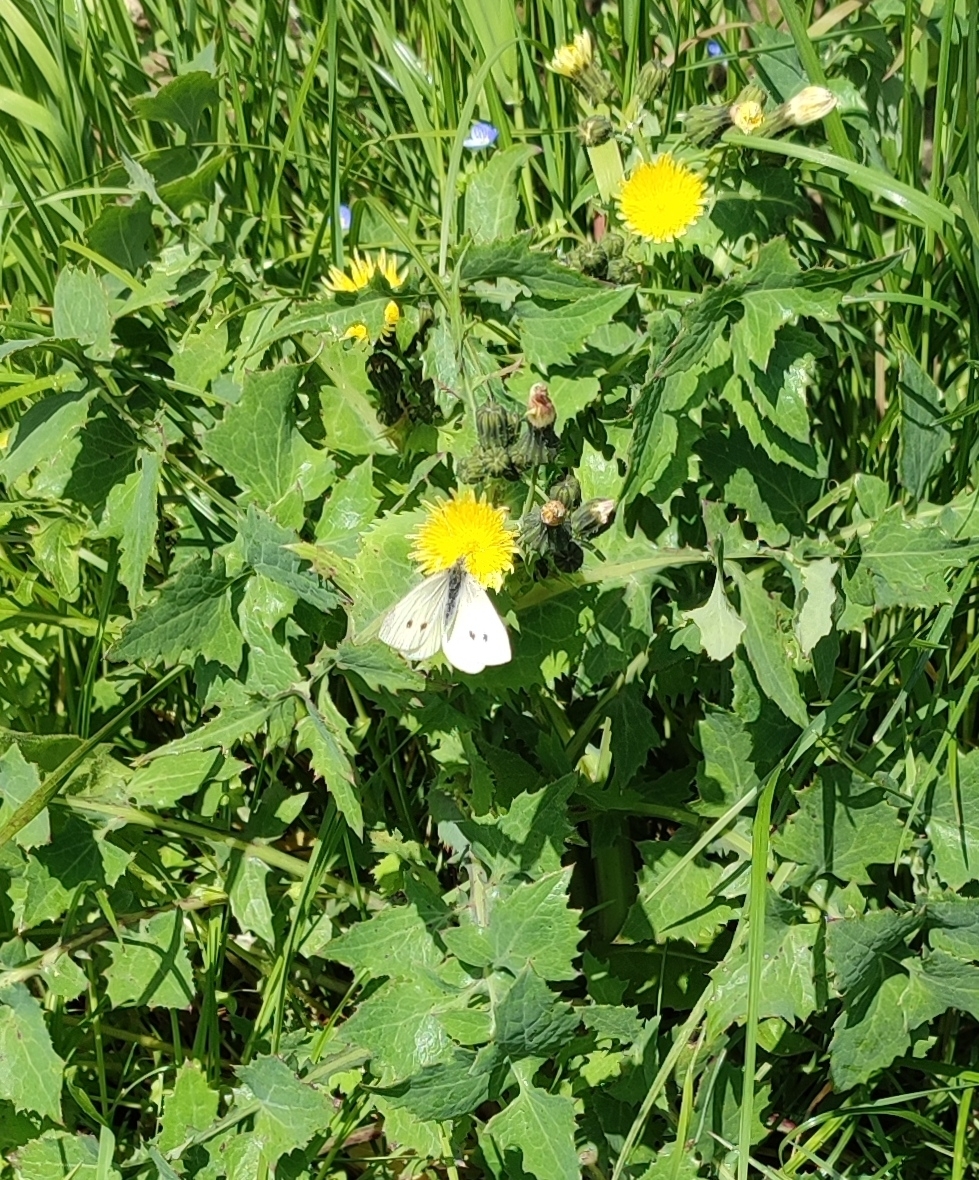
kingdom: Animalia
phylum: Arthropoda
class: Insecta
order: Lepidoptera
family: Pieridae
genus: Pieris
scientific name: Pieris rapae
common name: Small white
